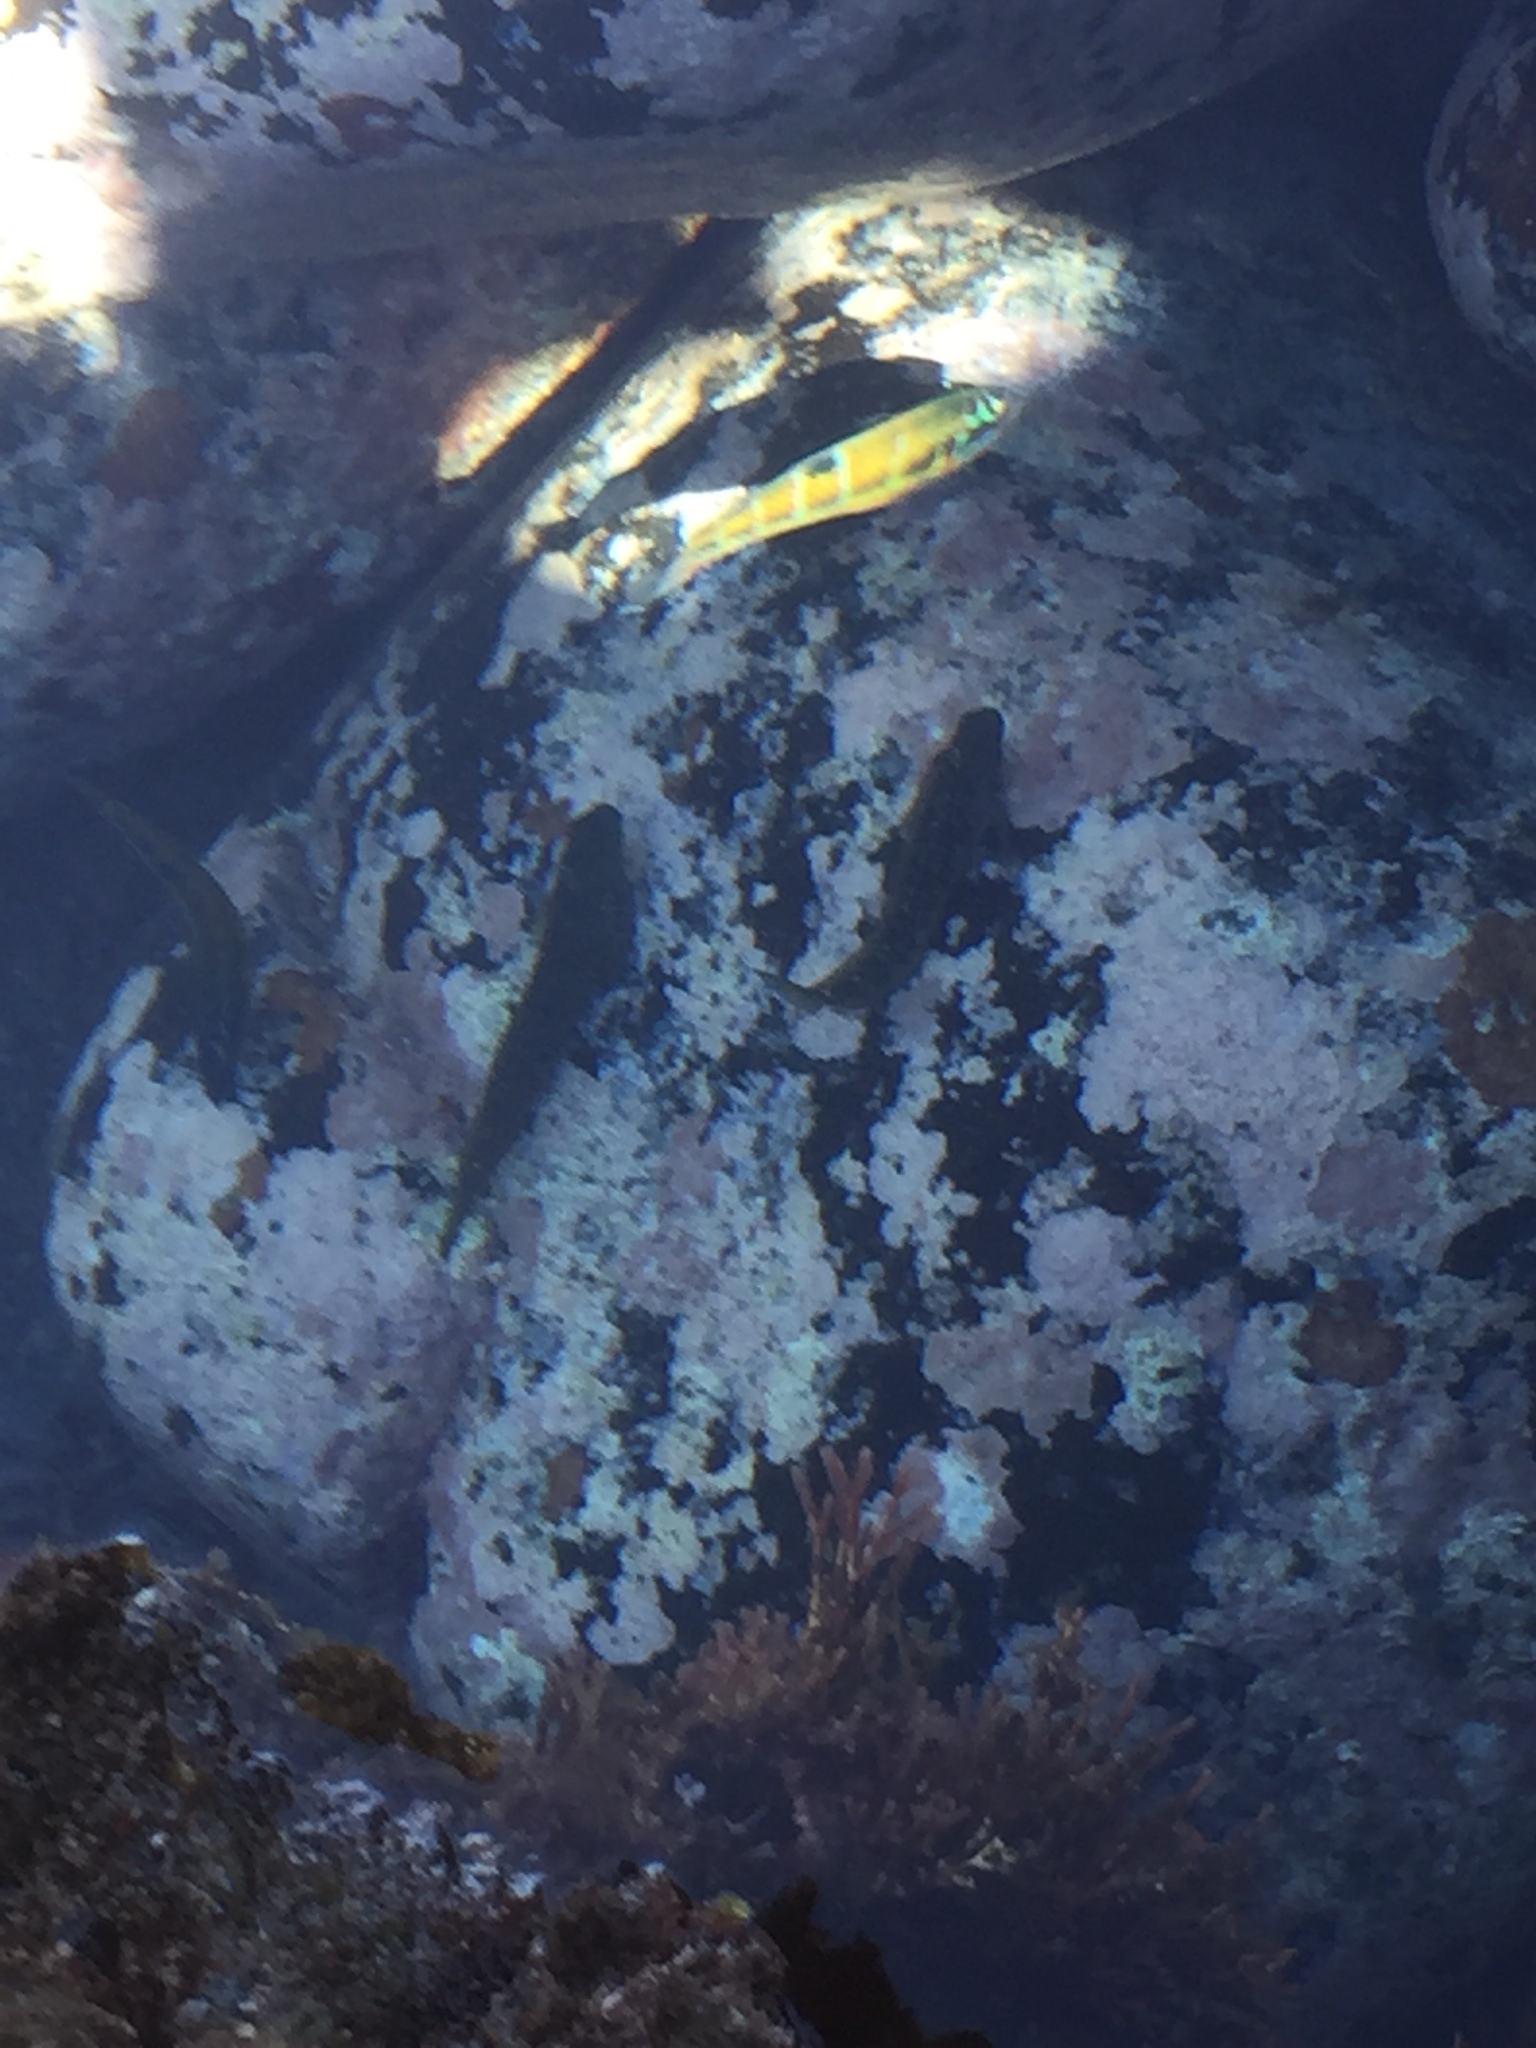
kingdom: Animalia
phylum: Chordata
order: Perciformes
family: Labridae
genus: Thalassoma
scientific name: Thalassoma pavo
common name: Ornate wrasse
